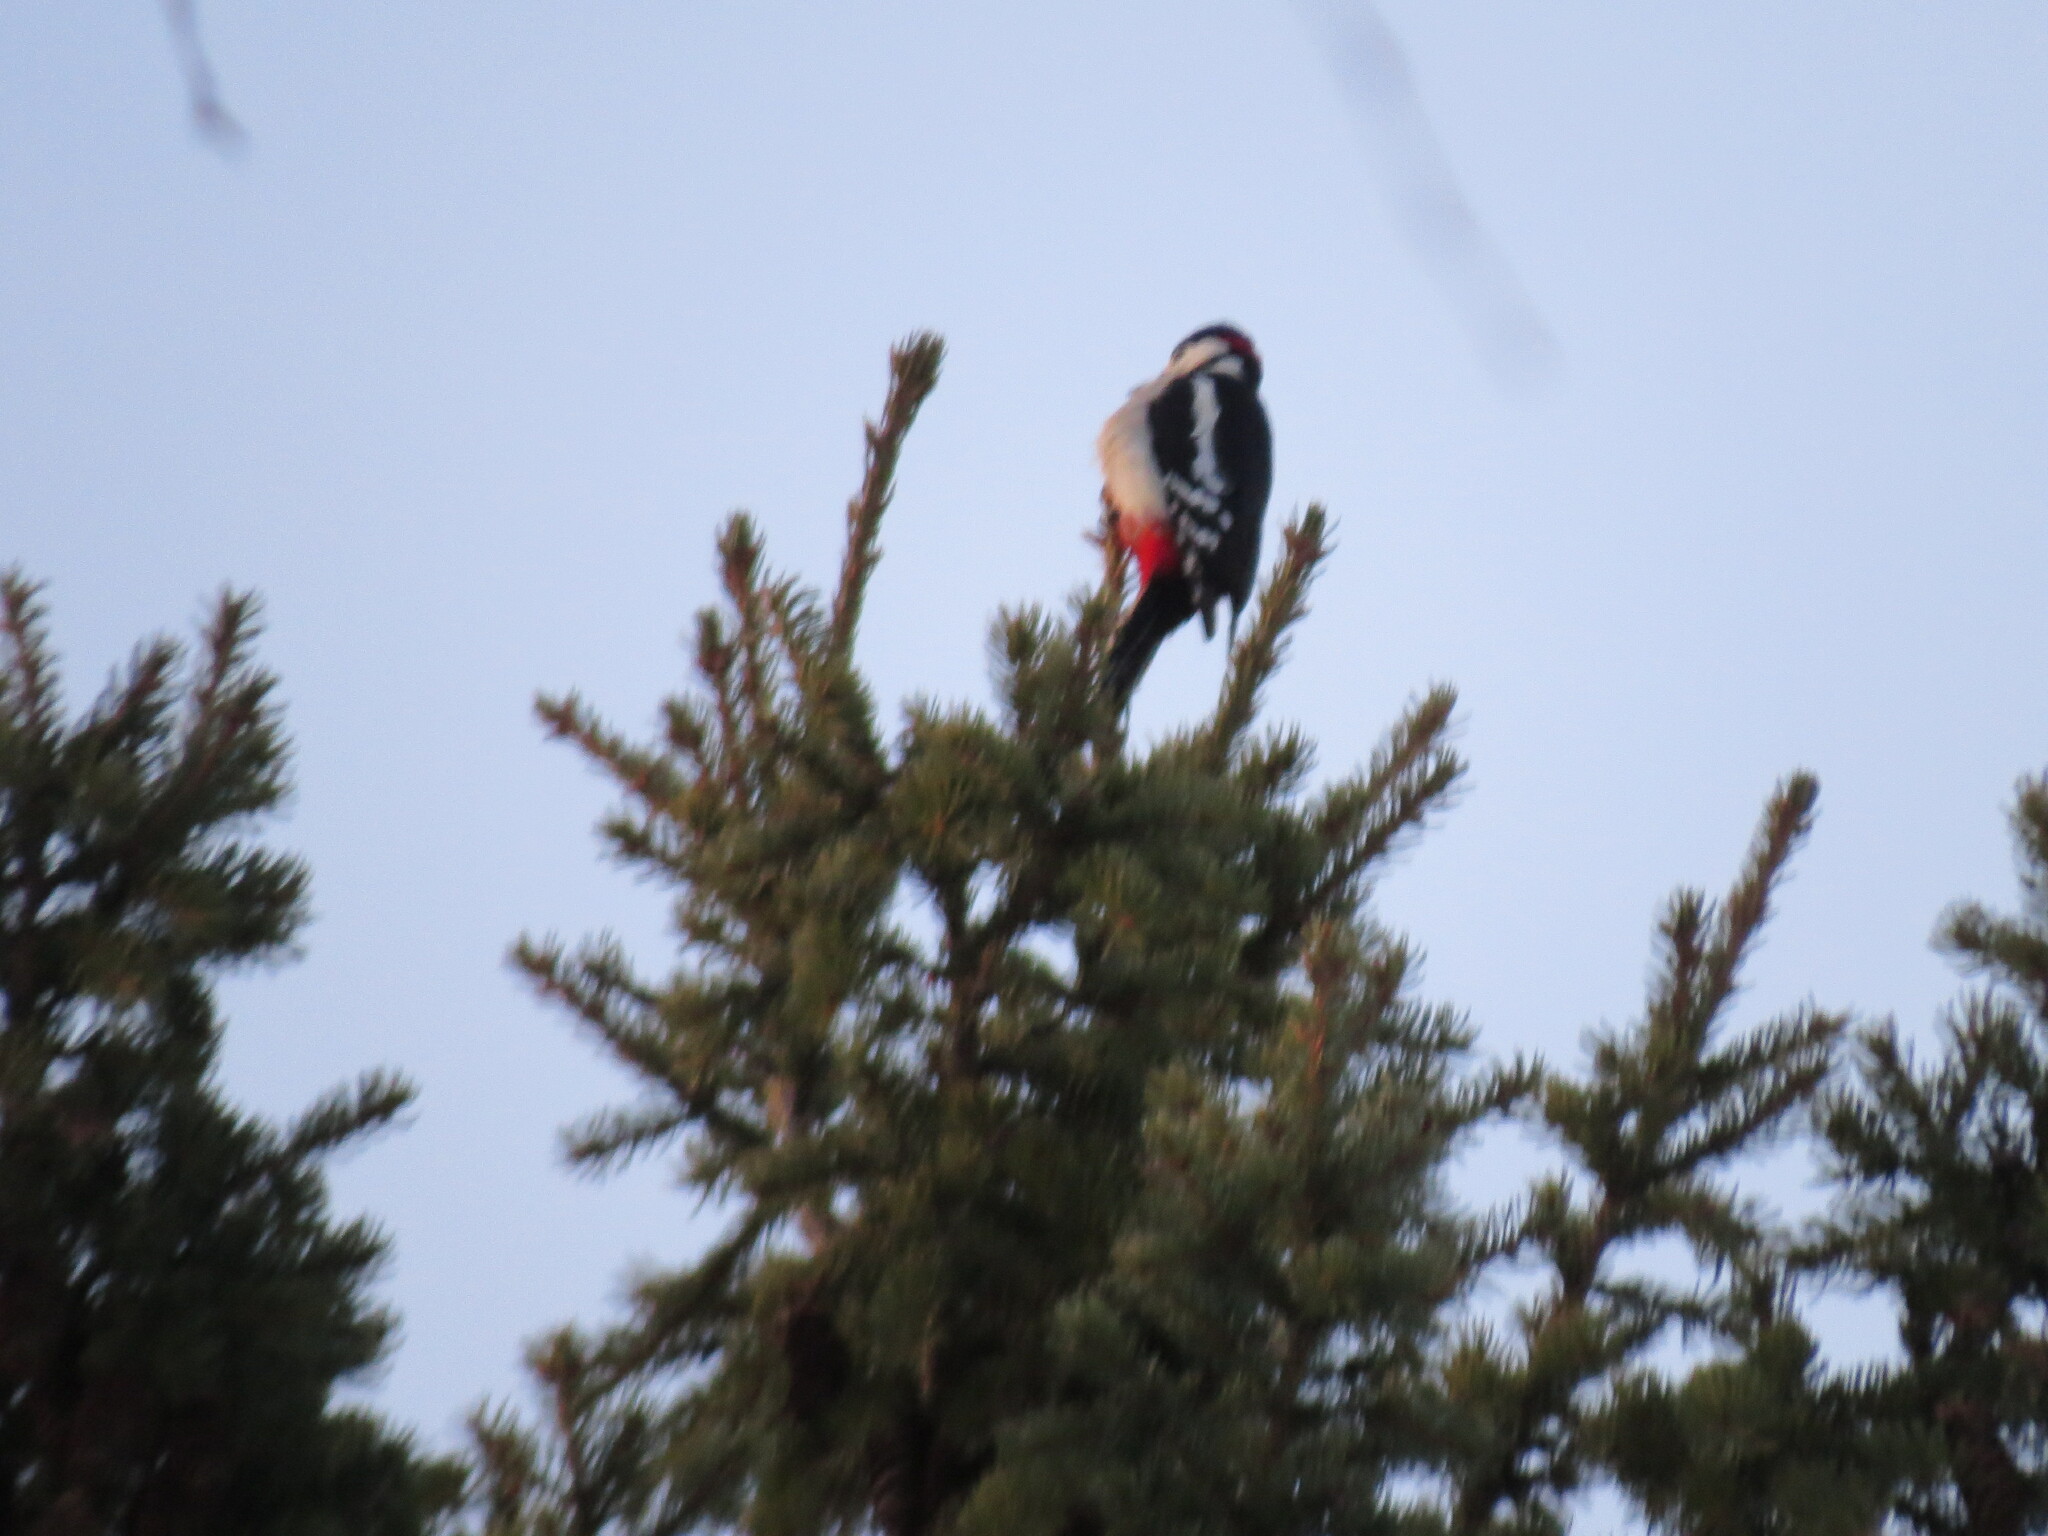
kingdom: Animalia
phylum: Chordata
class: Aves
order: Piciformes
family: Picidae
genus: Dendrocopos
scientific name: Dendrocopos major
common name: Great spotted woodpecker
